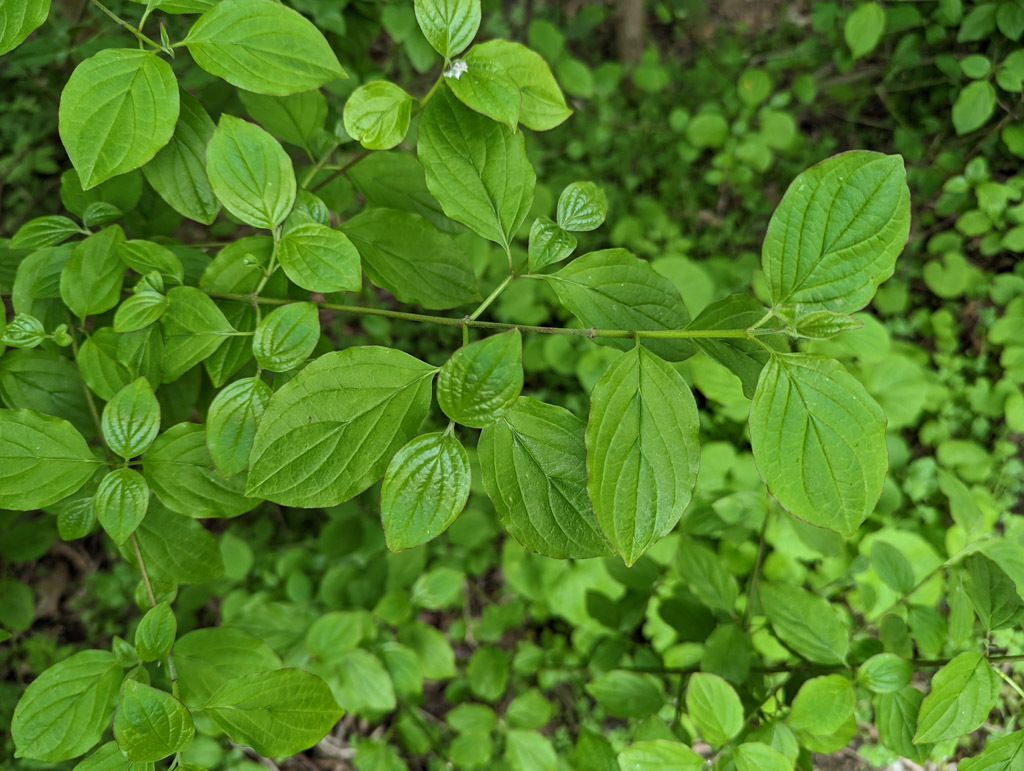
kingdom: Plantae
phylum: Tracheophyta
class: Magnoliopsida
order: Cornales
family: Cornaceae
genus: Cornus
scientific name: Cornus sanguinea
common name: Dogwood
